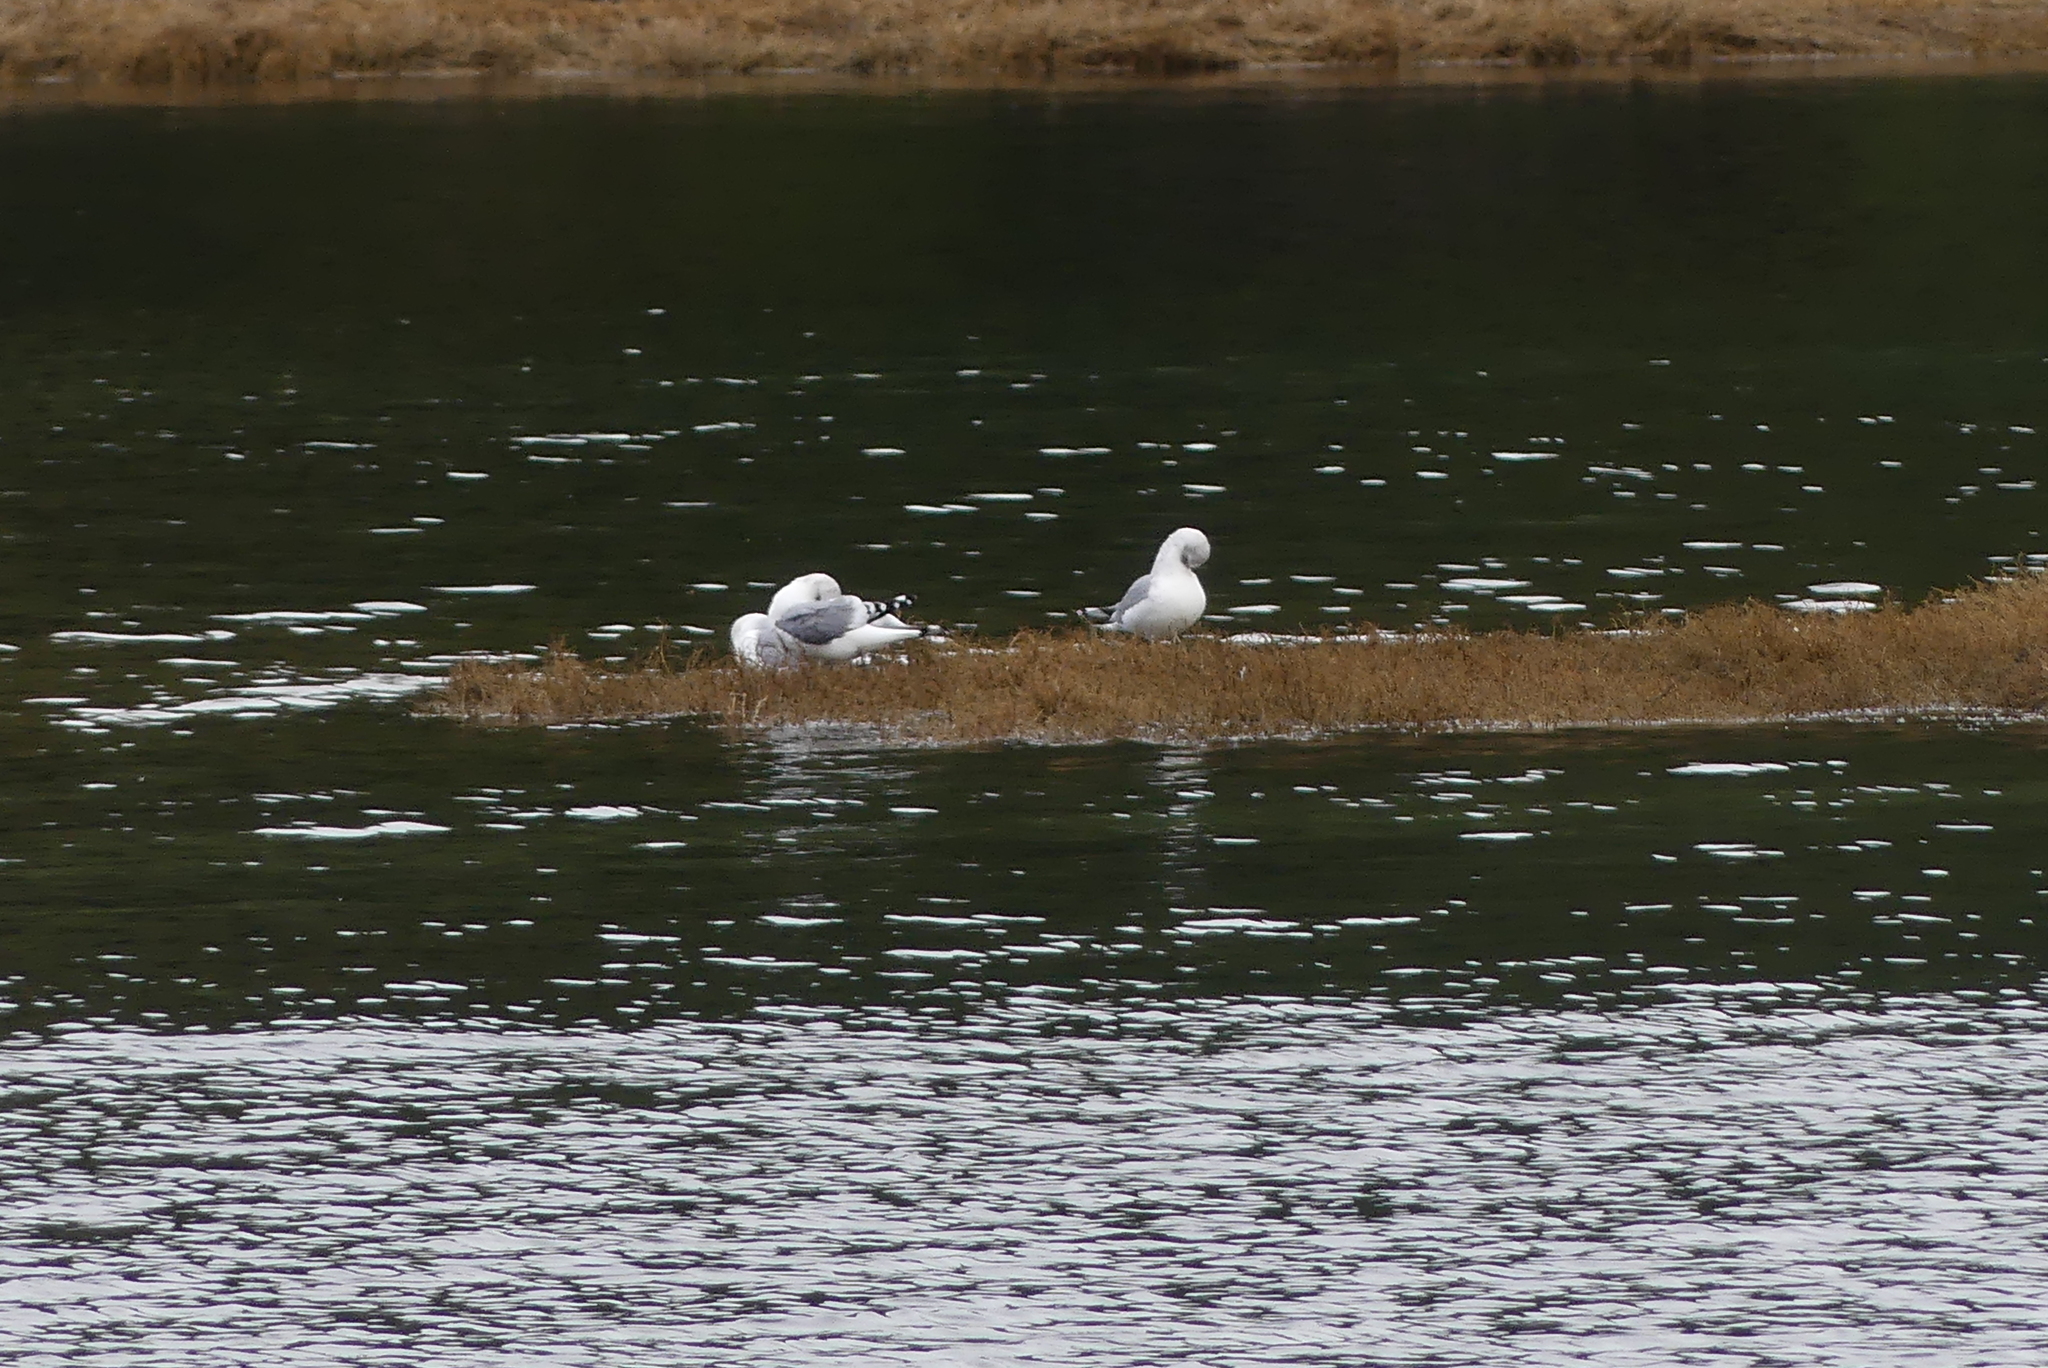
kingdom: Animalia
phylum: Chordata
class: Aves
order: Charadriiformes
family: Laridae
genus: Larus
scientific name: Larus brachyrhynchus
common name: Short-billed gull
